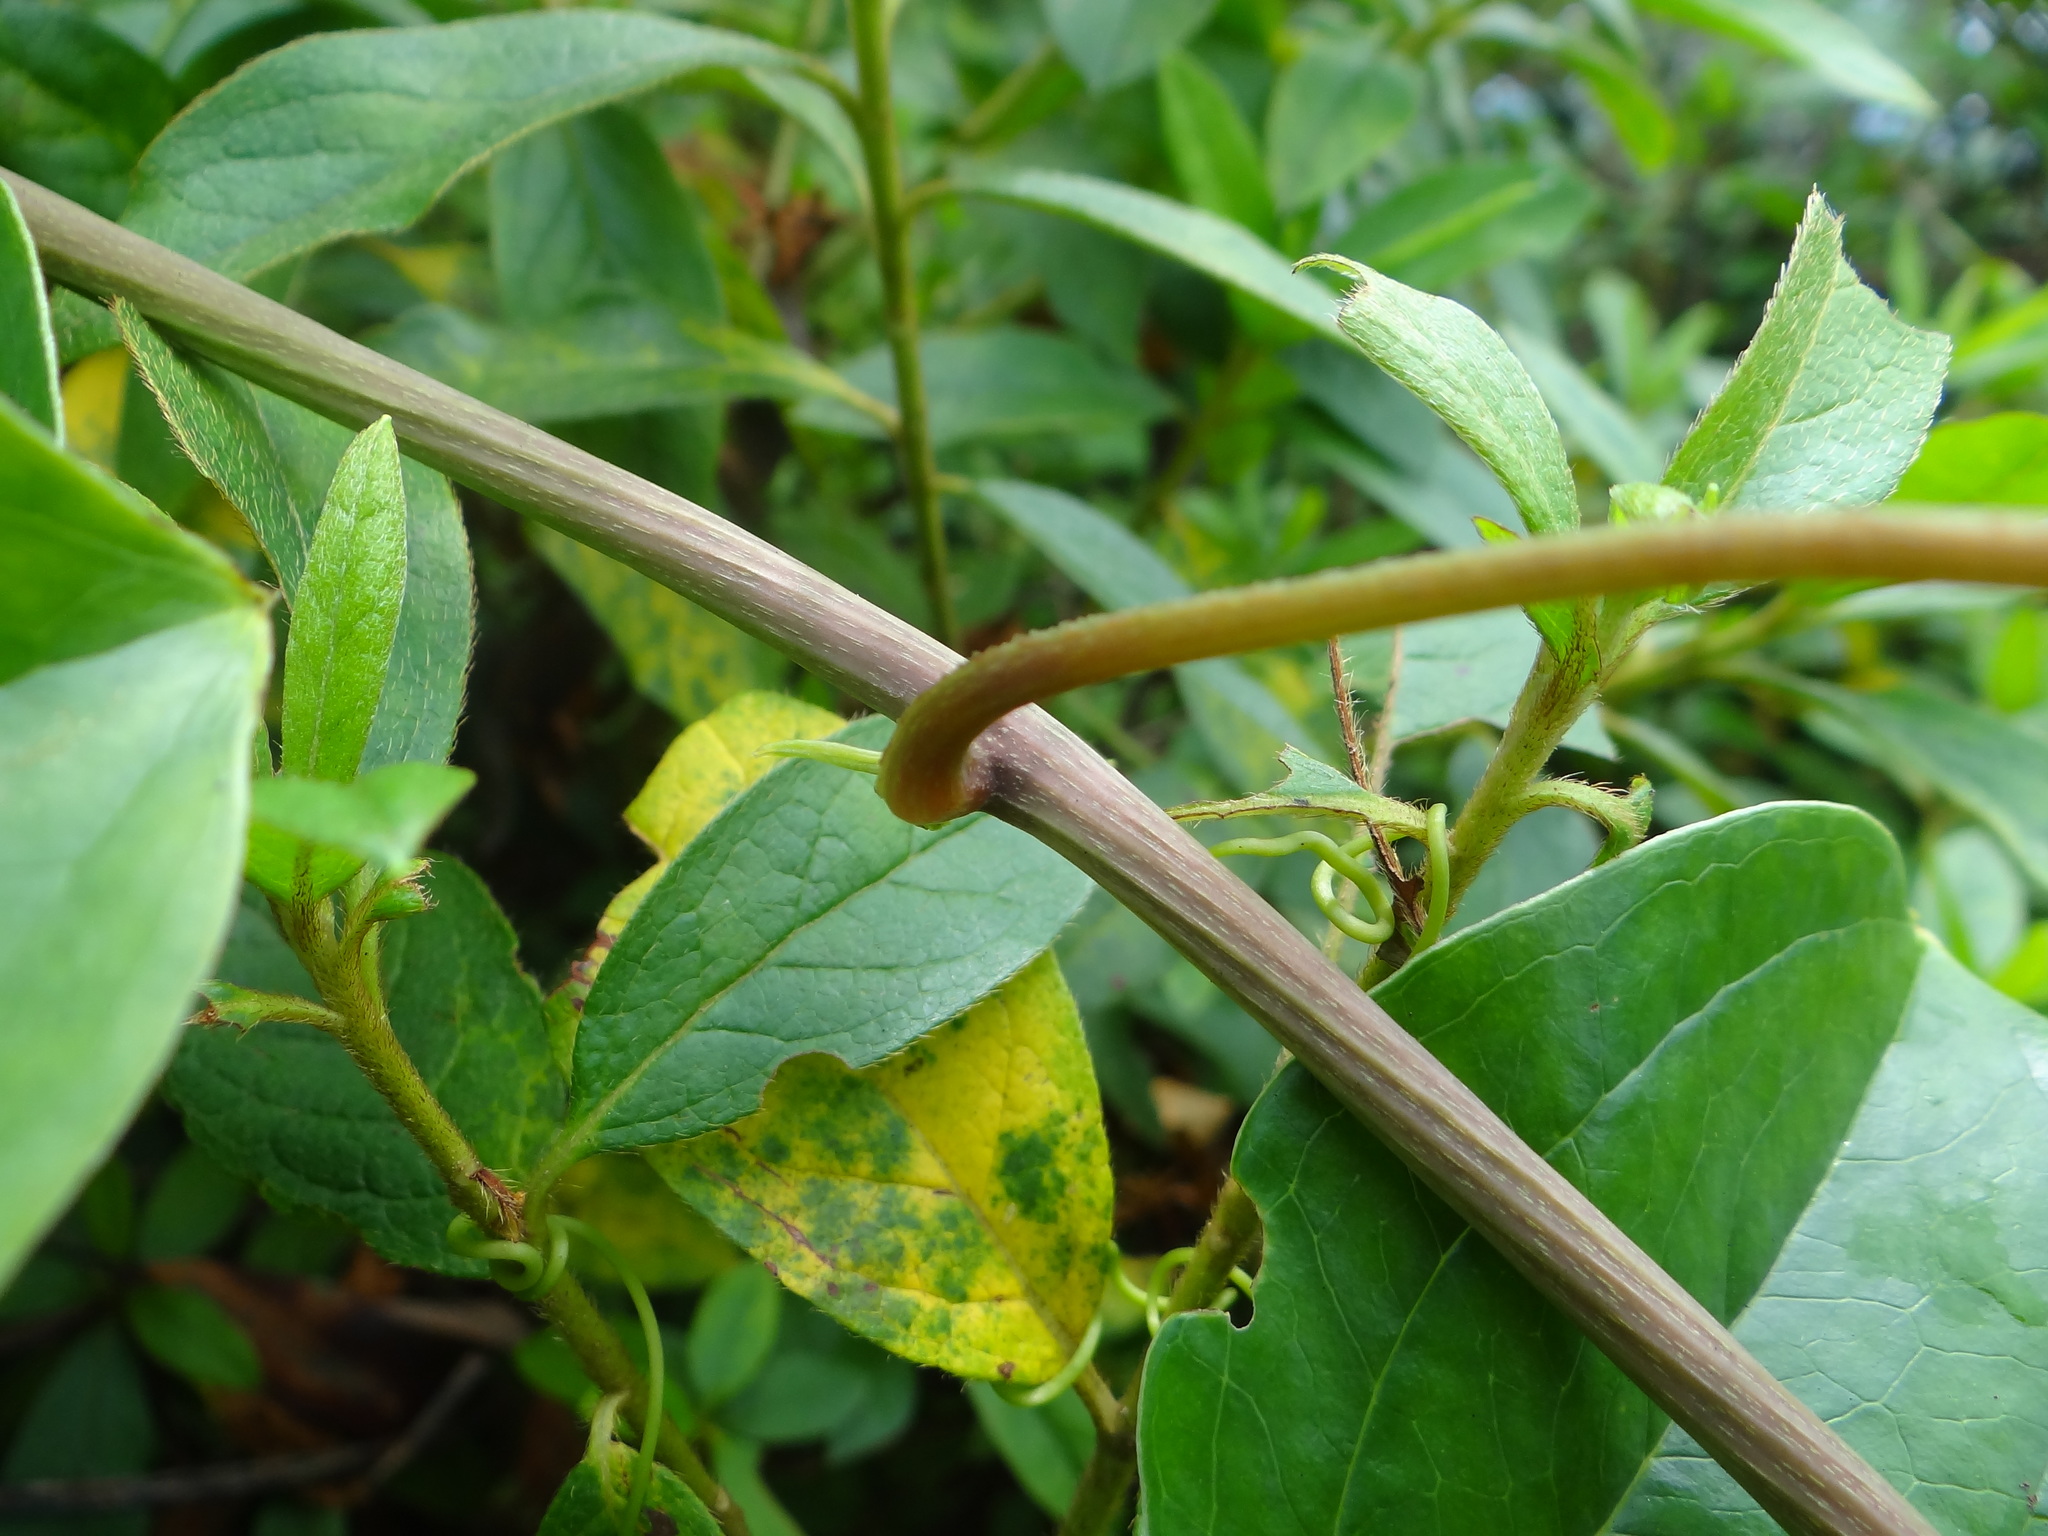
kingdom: Plantae
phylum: Tracheophyta
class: Liliopsida
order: Dioscoreales
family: Dioscoreaceae
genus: Dioscorea
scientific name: Dioscorea bulbifera
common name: Air yam
